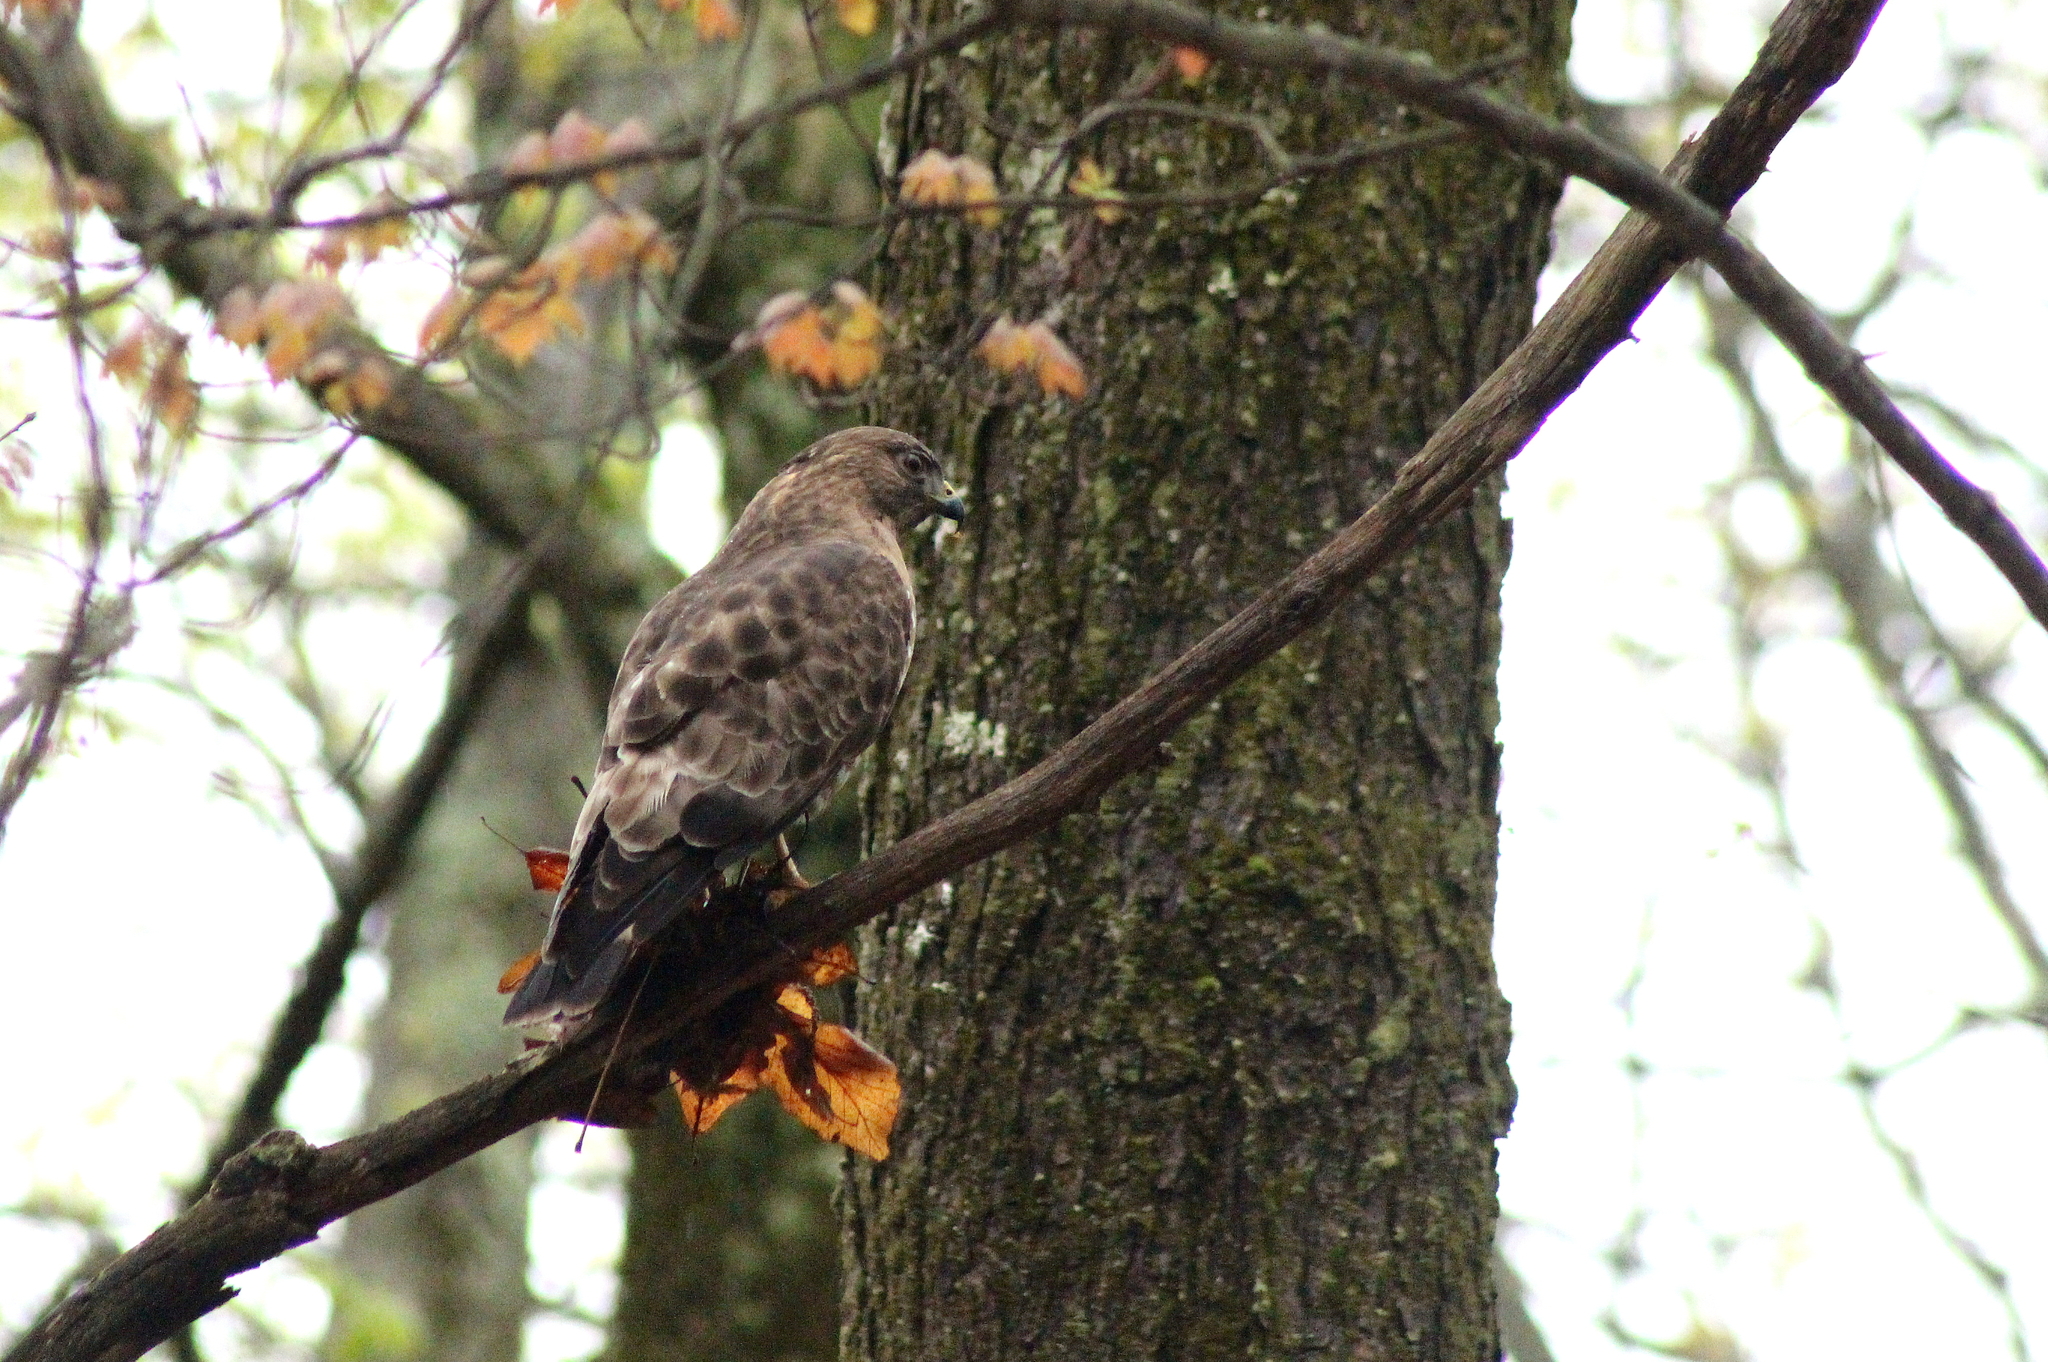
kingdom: Animalia
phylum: Chordata
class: Aves
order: Accipitriformes
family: Accipitridae
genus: Buteo
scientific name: Buteo platypterus
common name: Broad-winged hawk
